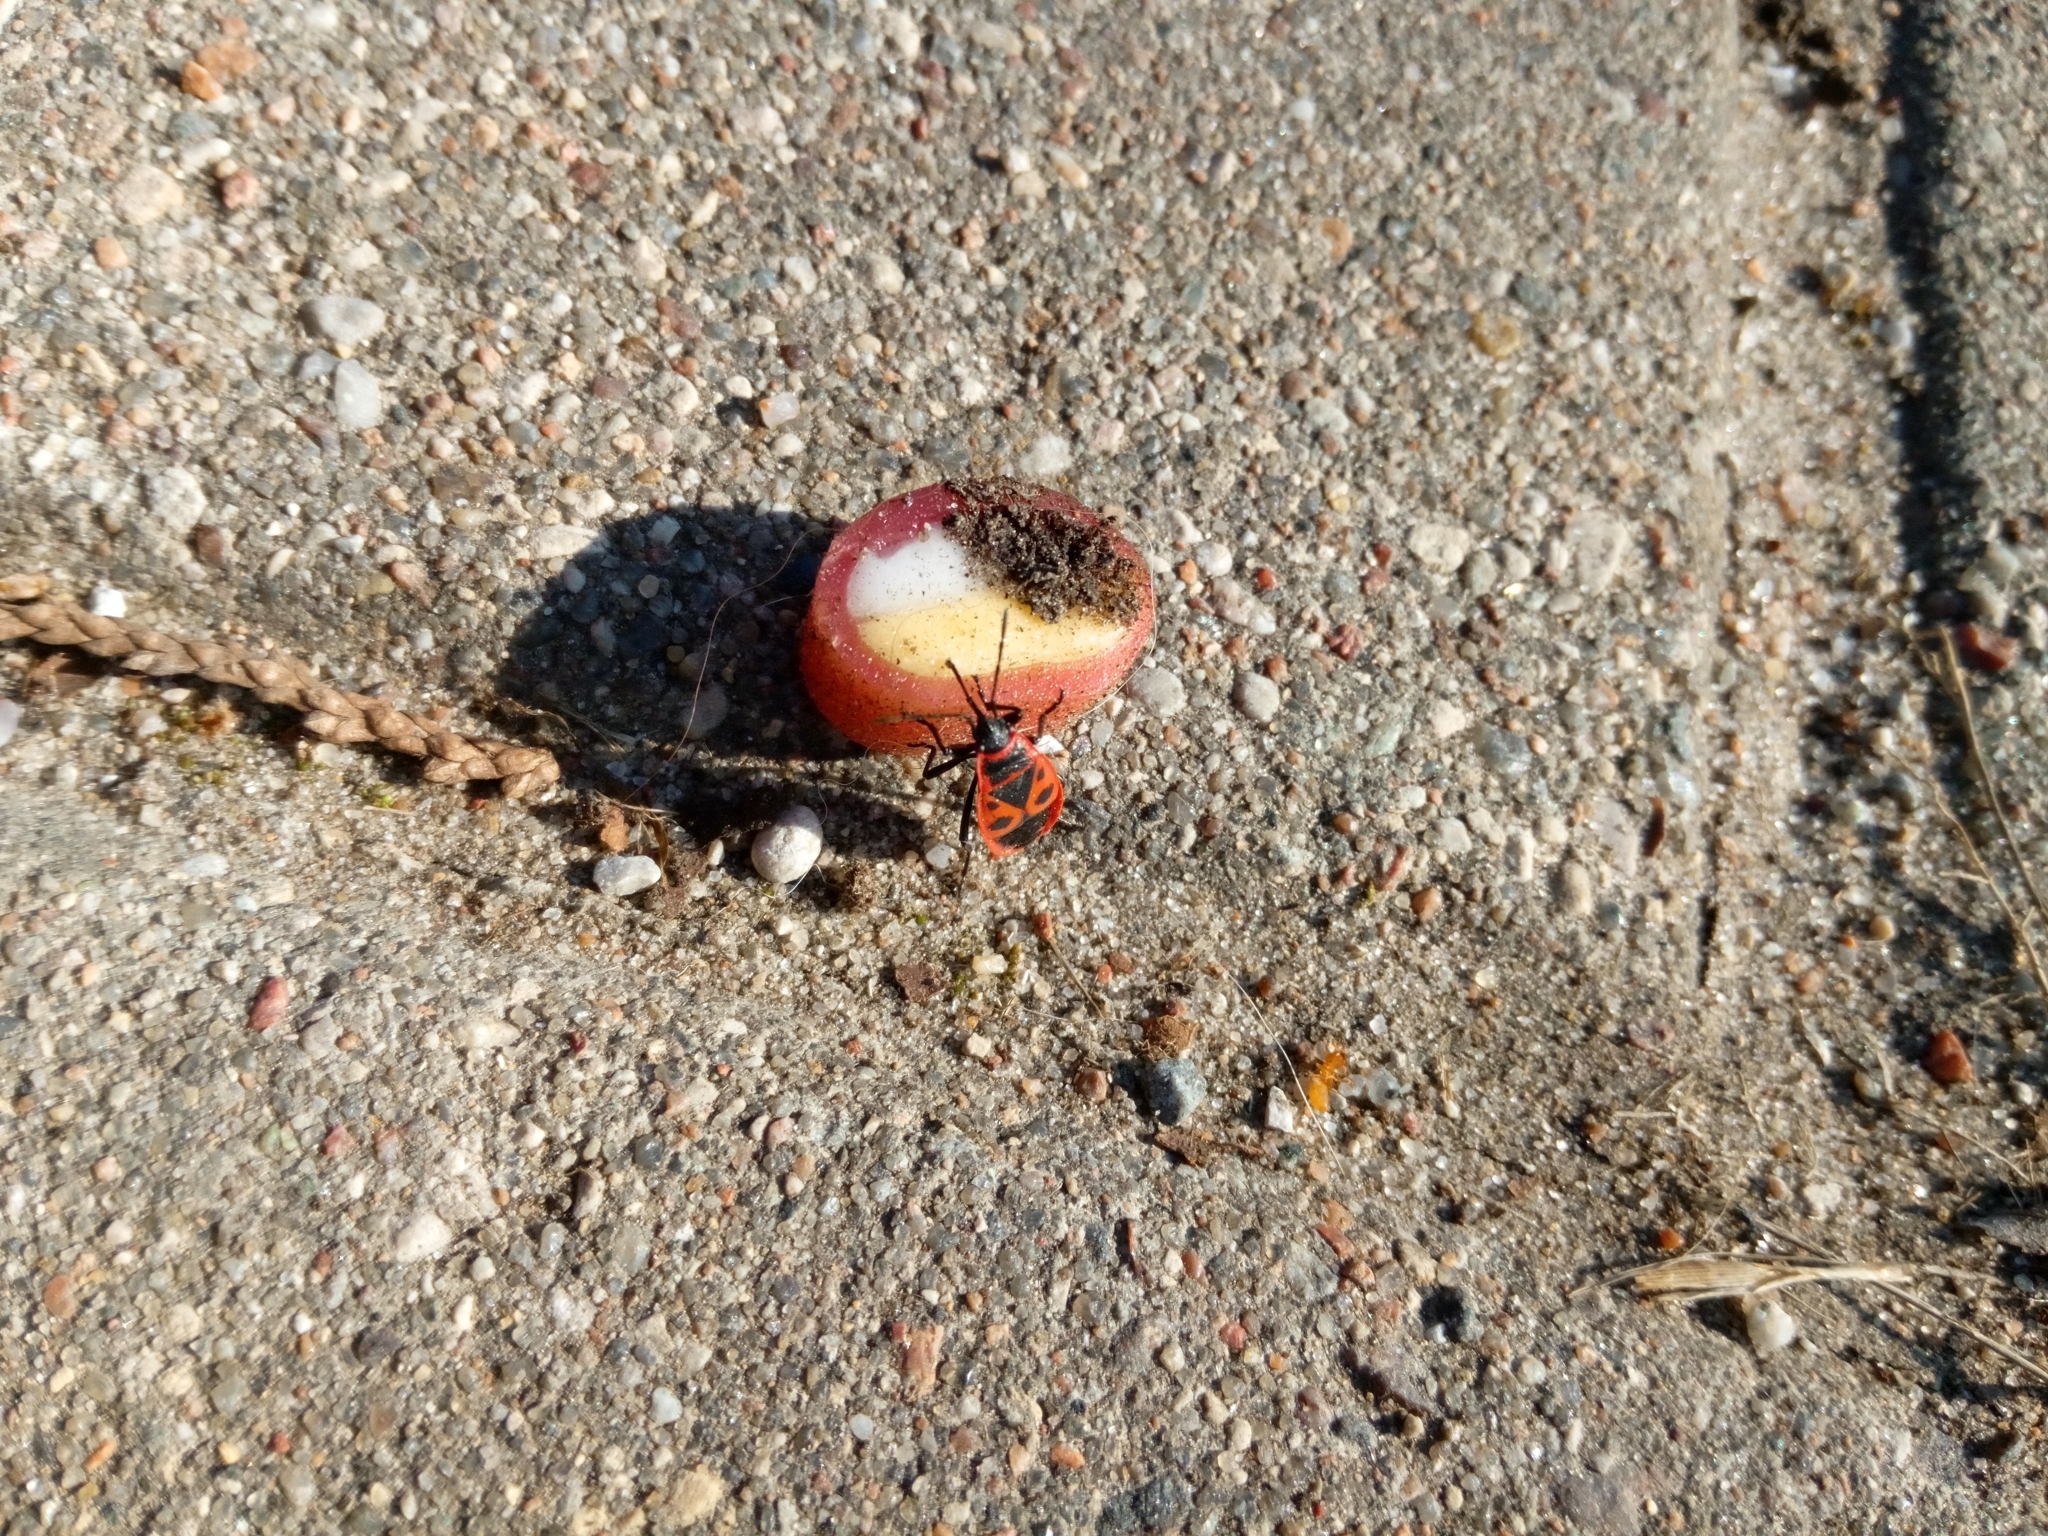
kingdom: Animalia
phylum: Arthropoda
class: Insecta
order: Hemiptera
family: Pyrrhocoridae
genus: Pyrrhocoris
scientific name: Pyrrhocoris apterus
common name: Firebug
